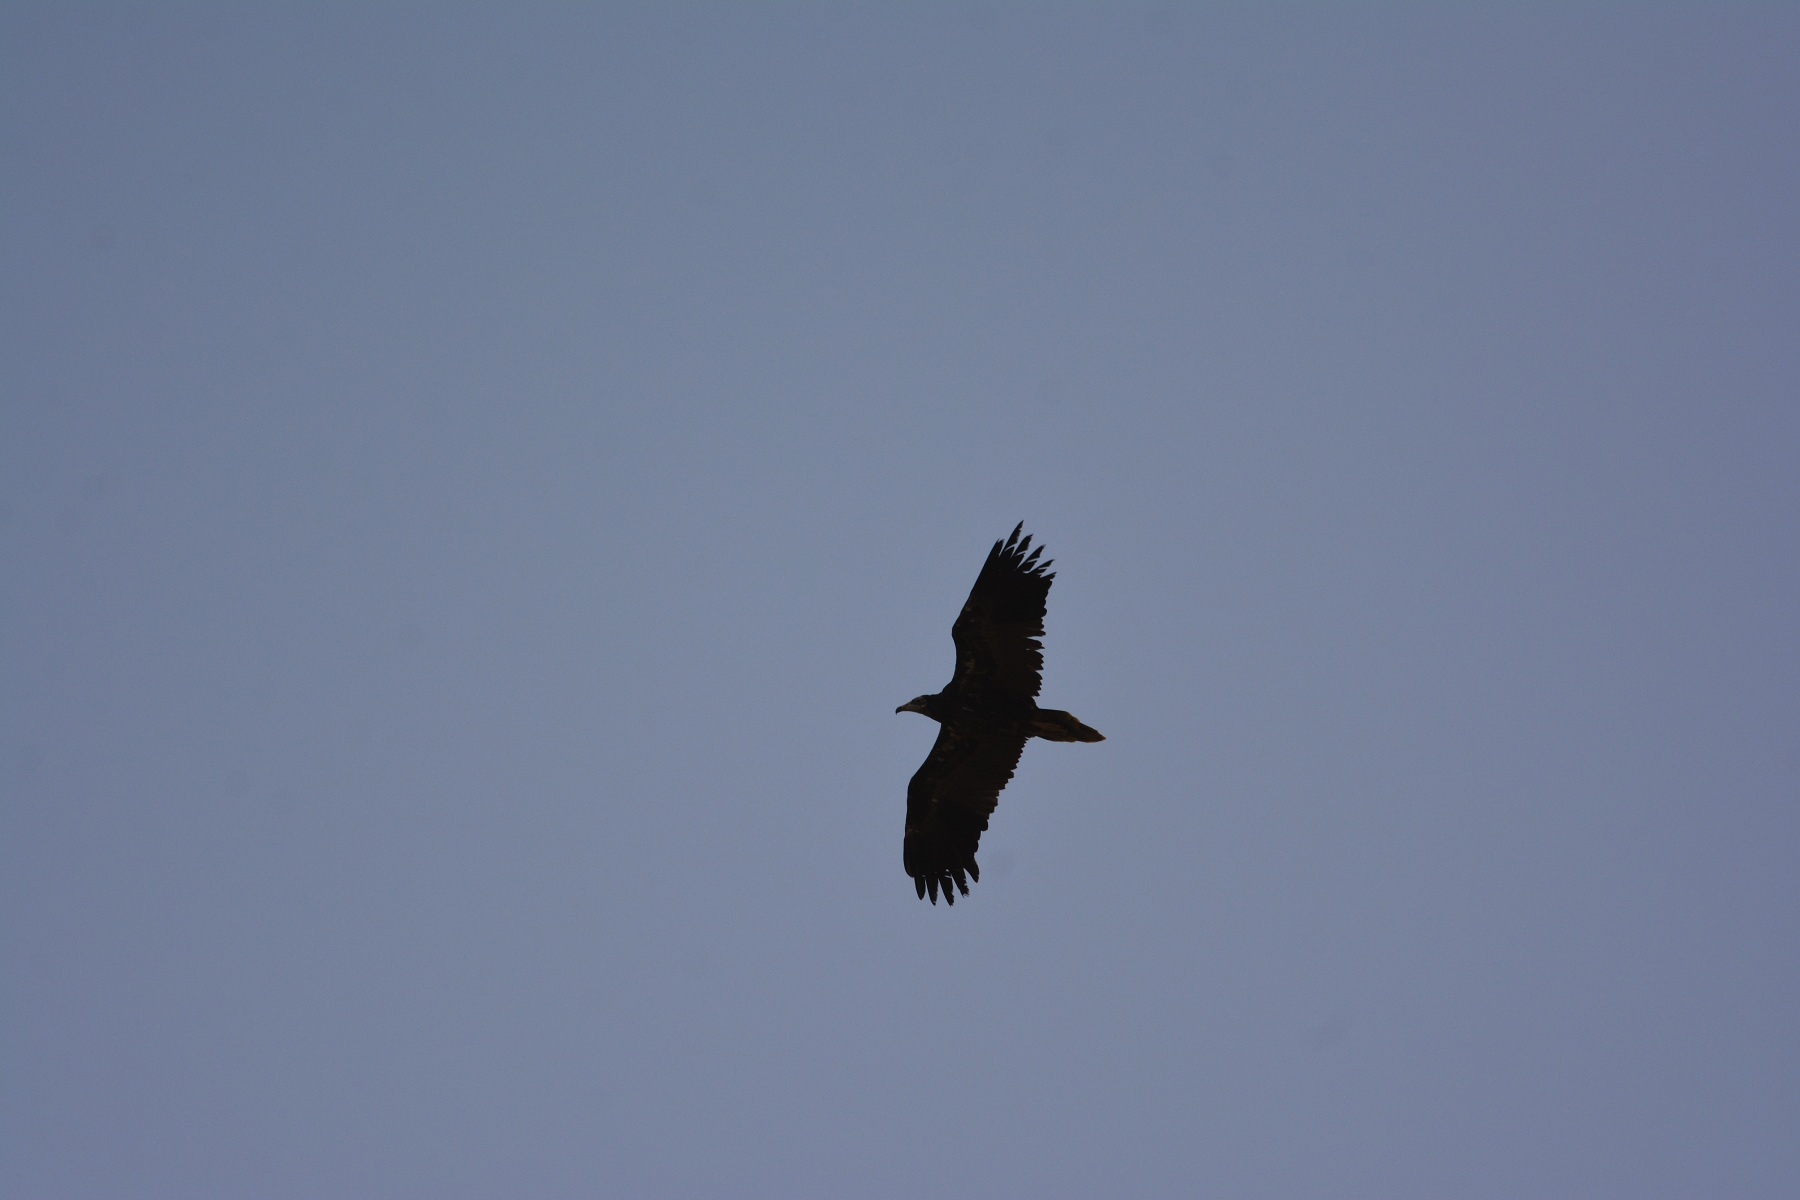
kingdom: Animalia
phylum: Chordata
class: Aves
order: Accipitriformes
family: Accipitridae
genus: Neophron
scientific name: Neophron percnopterus
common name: Egyptian vulture
